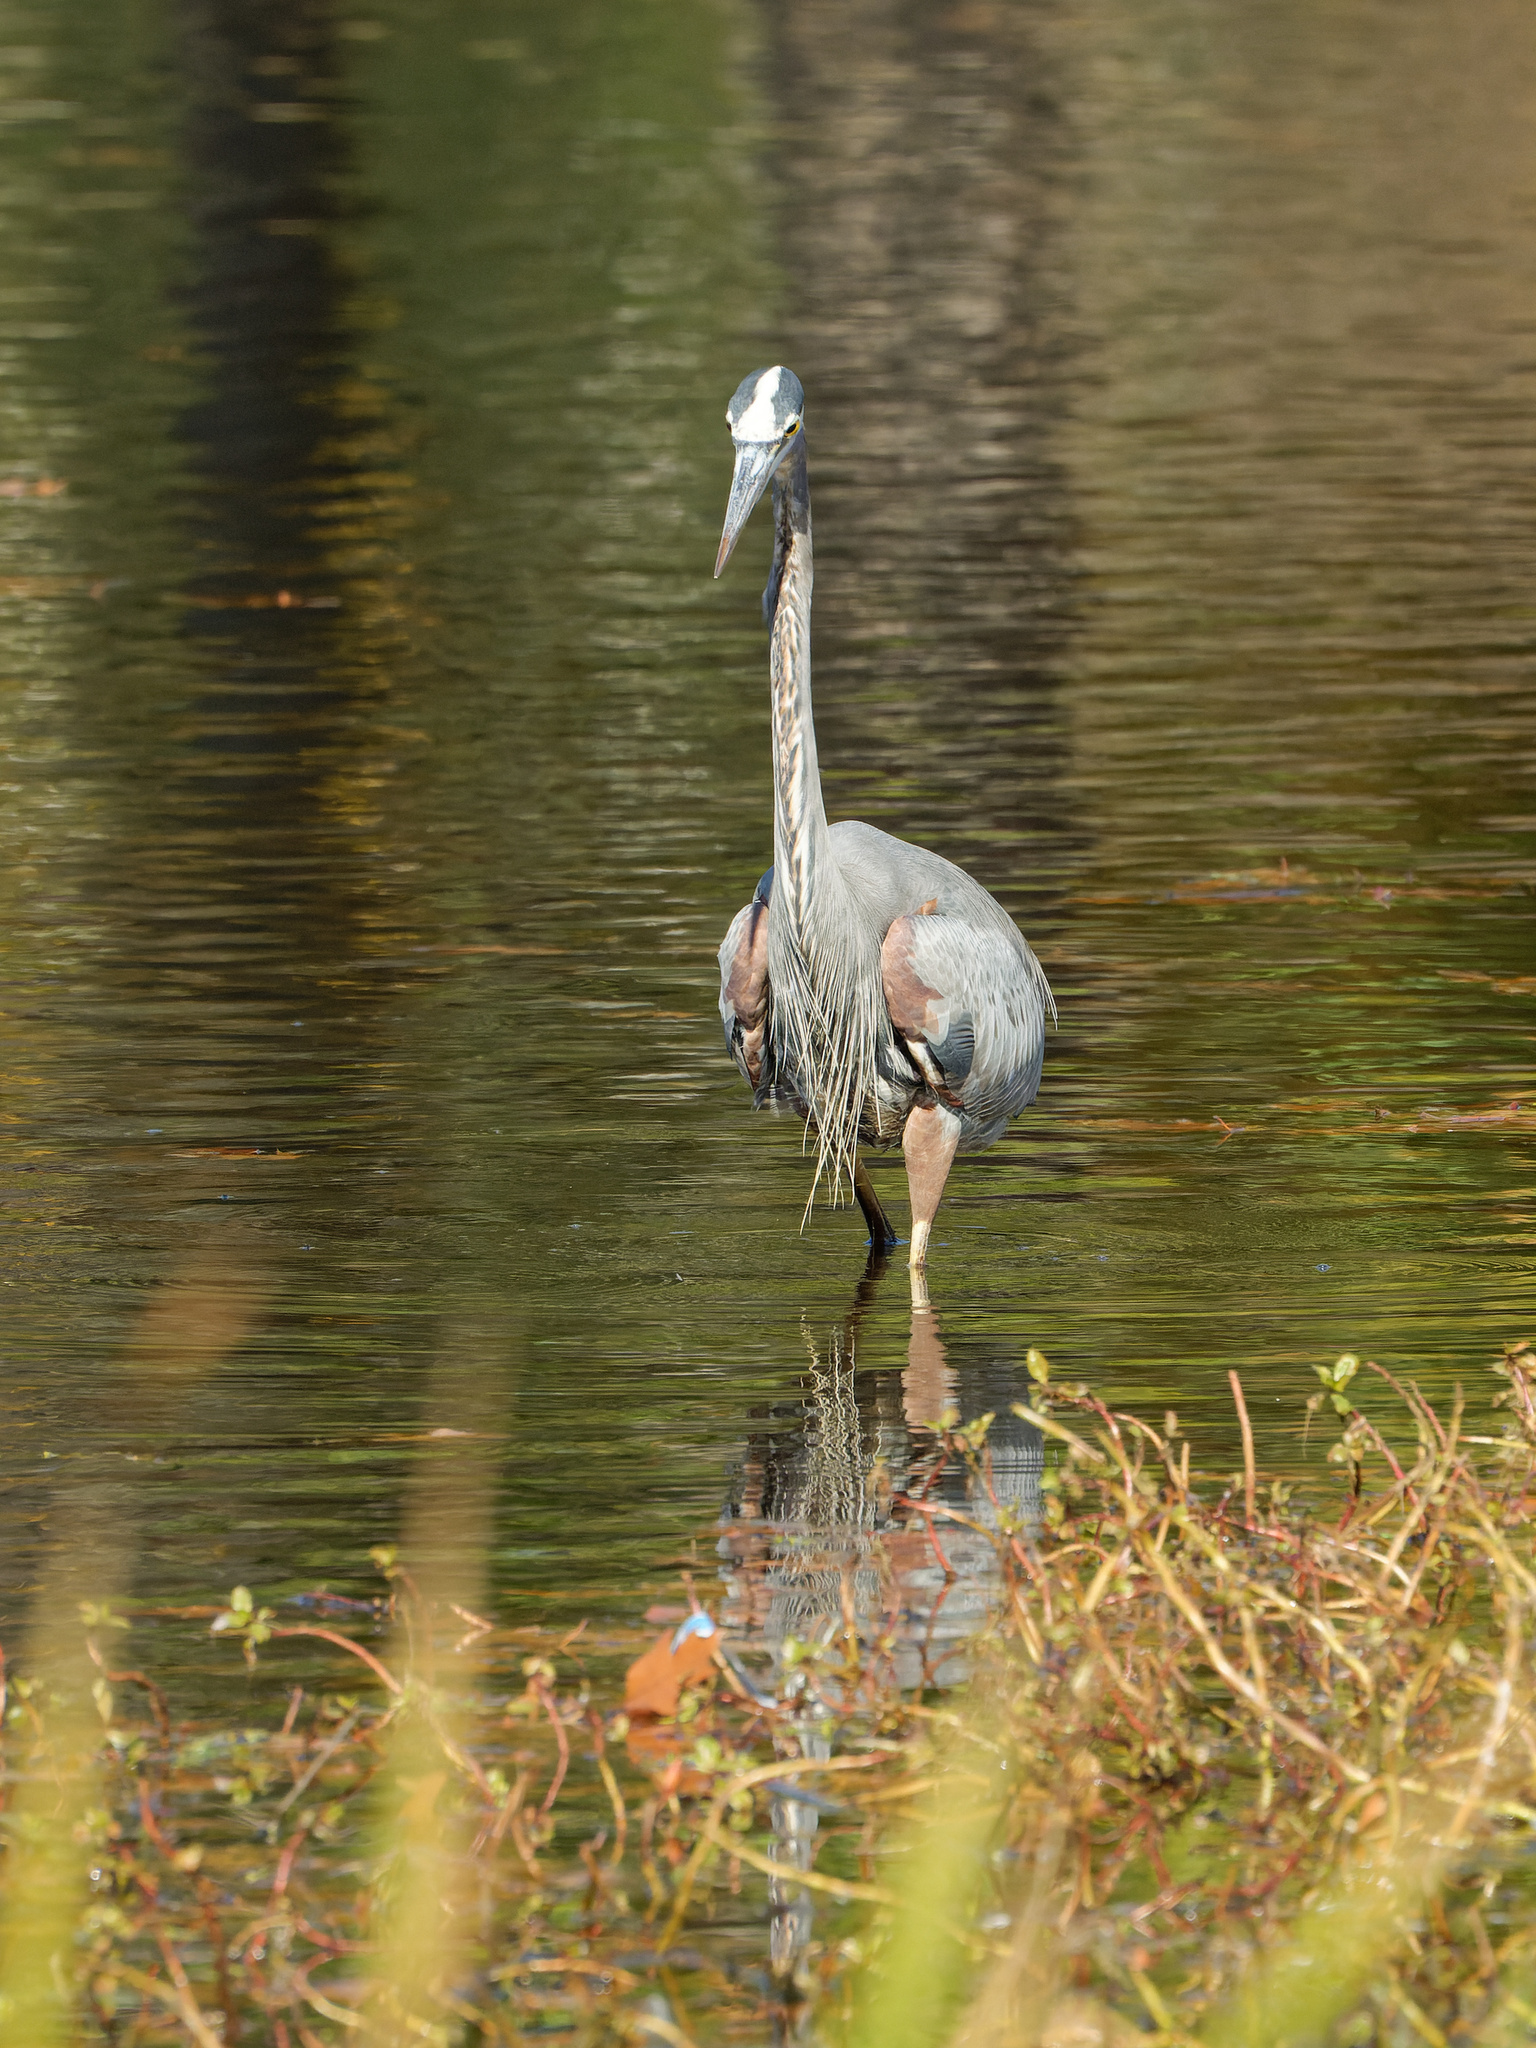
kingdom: Animalia
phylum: Chordata
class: Aves
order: Pelecaniformes
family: Ardeidae
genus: Ardea
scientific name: Ardea herodias
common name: Great blue heron
